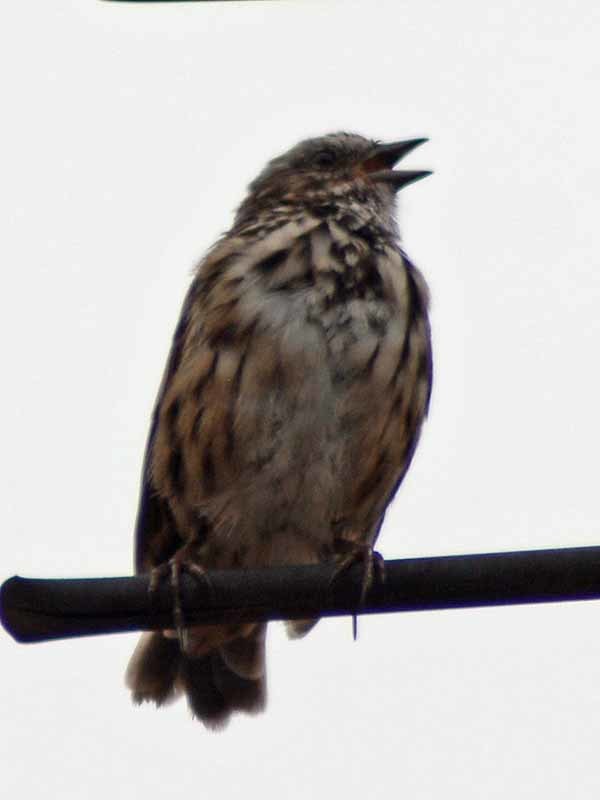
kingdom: Animalia
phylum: Chordata
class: Aves
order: Passeriformes
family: Passerellidae
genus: Melospiza
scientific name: Melospiza melodia
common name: Song sparrow
